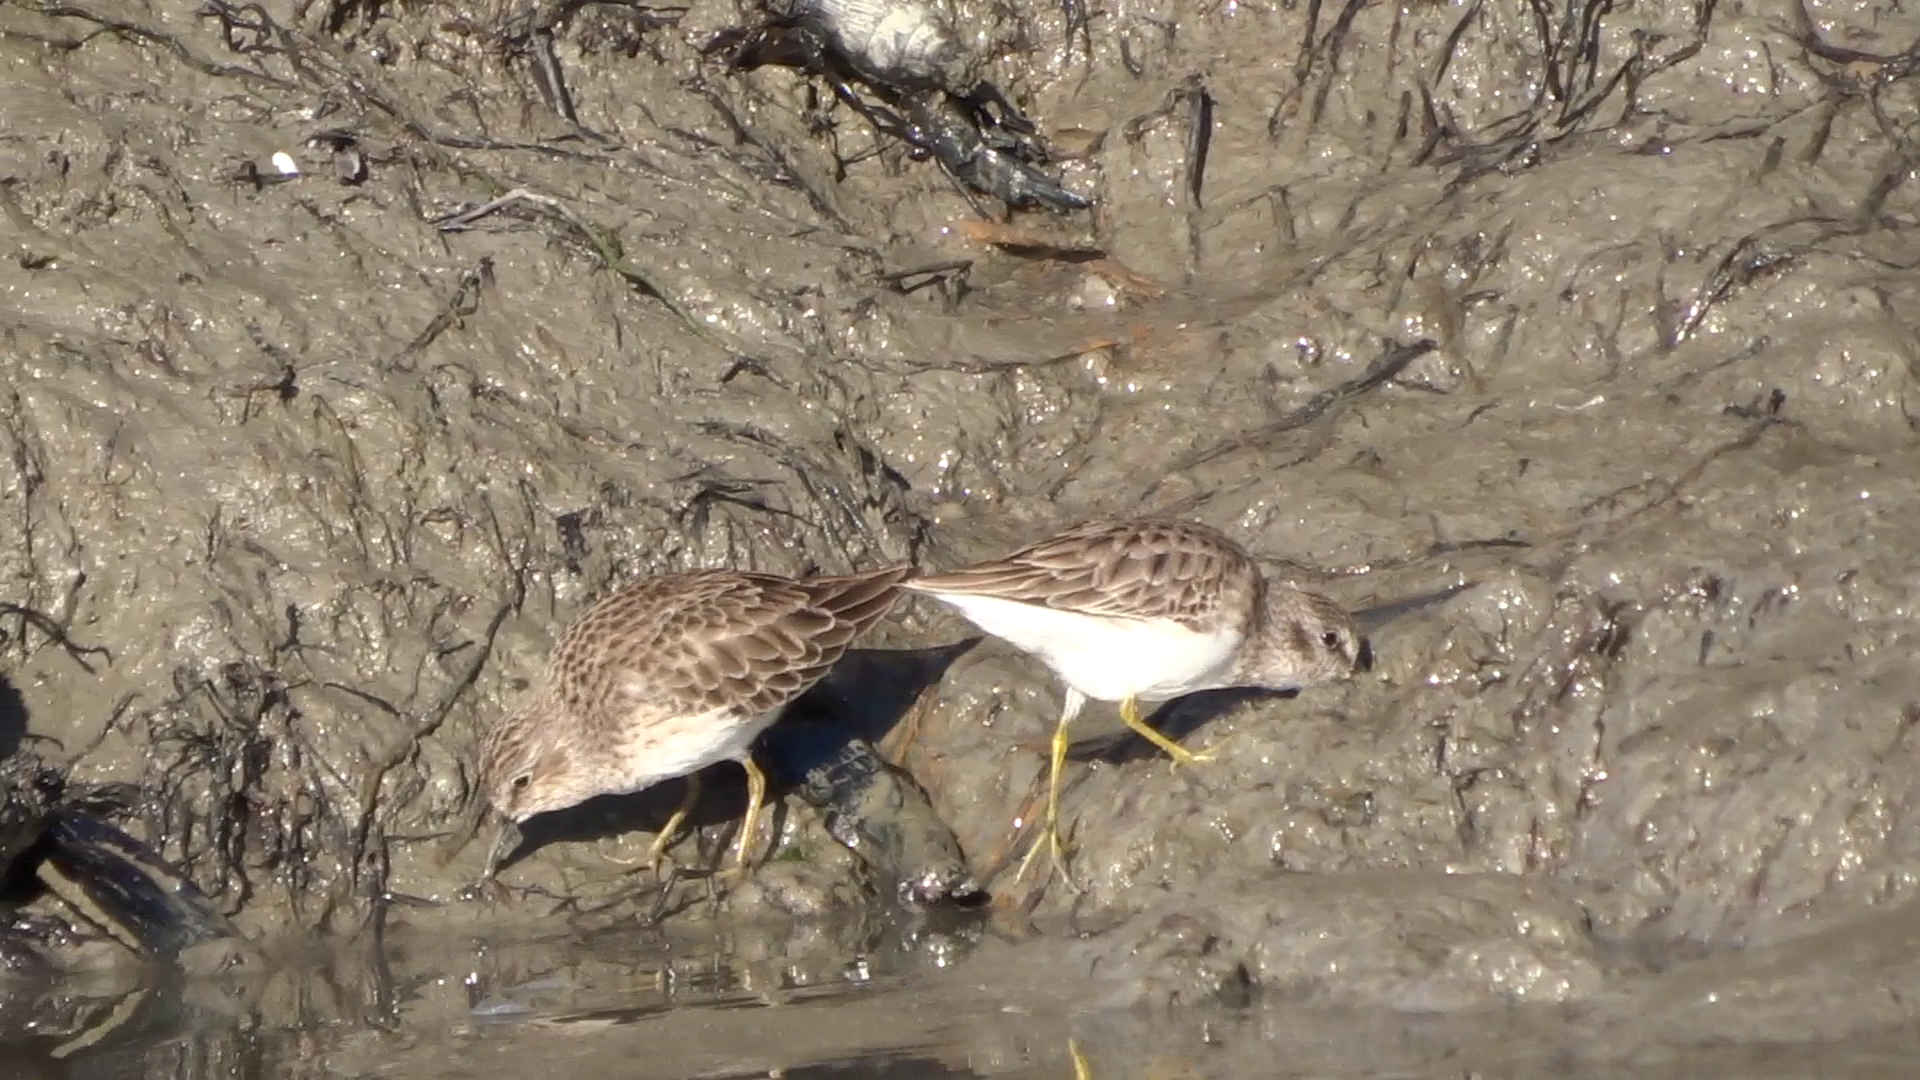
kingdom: Animalia
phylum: Chordata
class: Aves
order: Charadriiformes
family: Scolopacidae
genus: Calidris
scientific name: Calidris minutilla
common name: Least sandpiper
